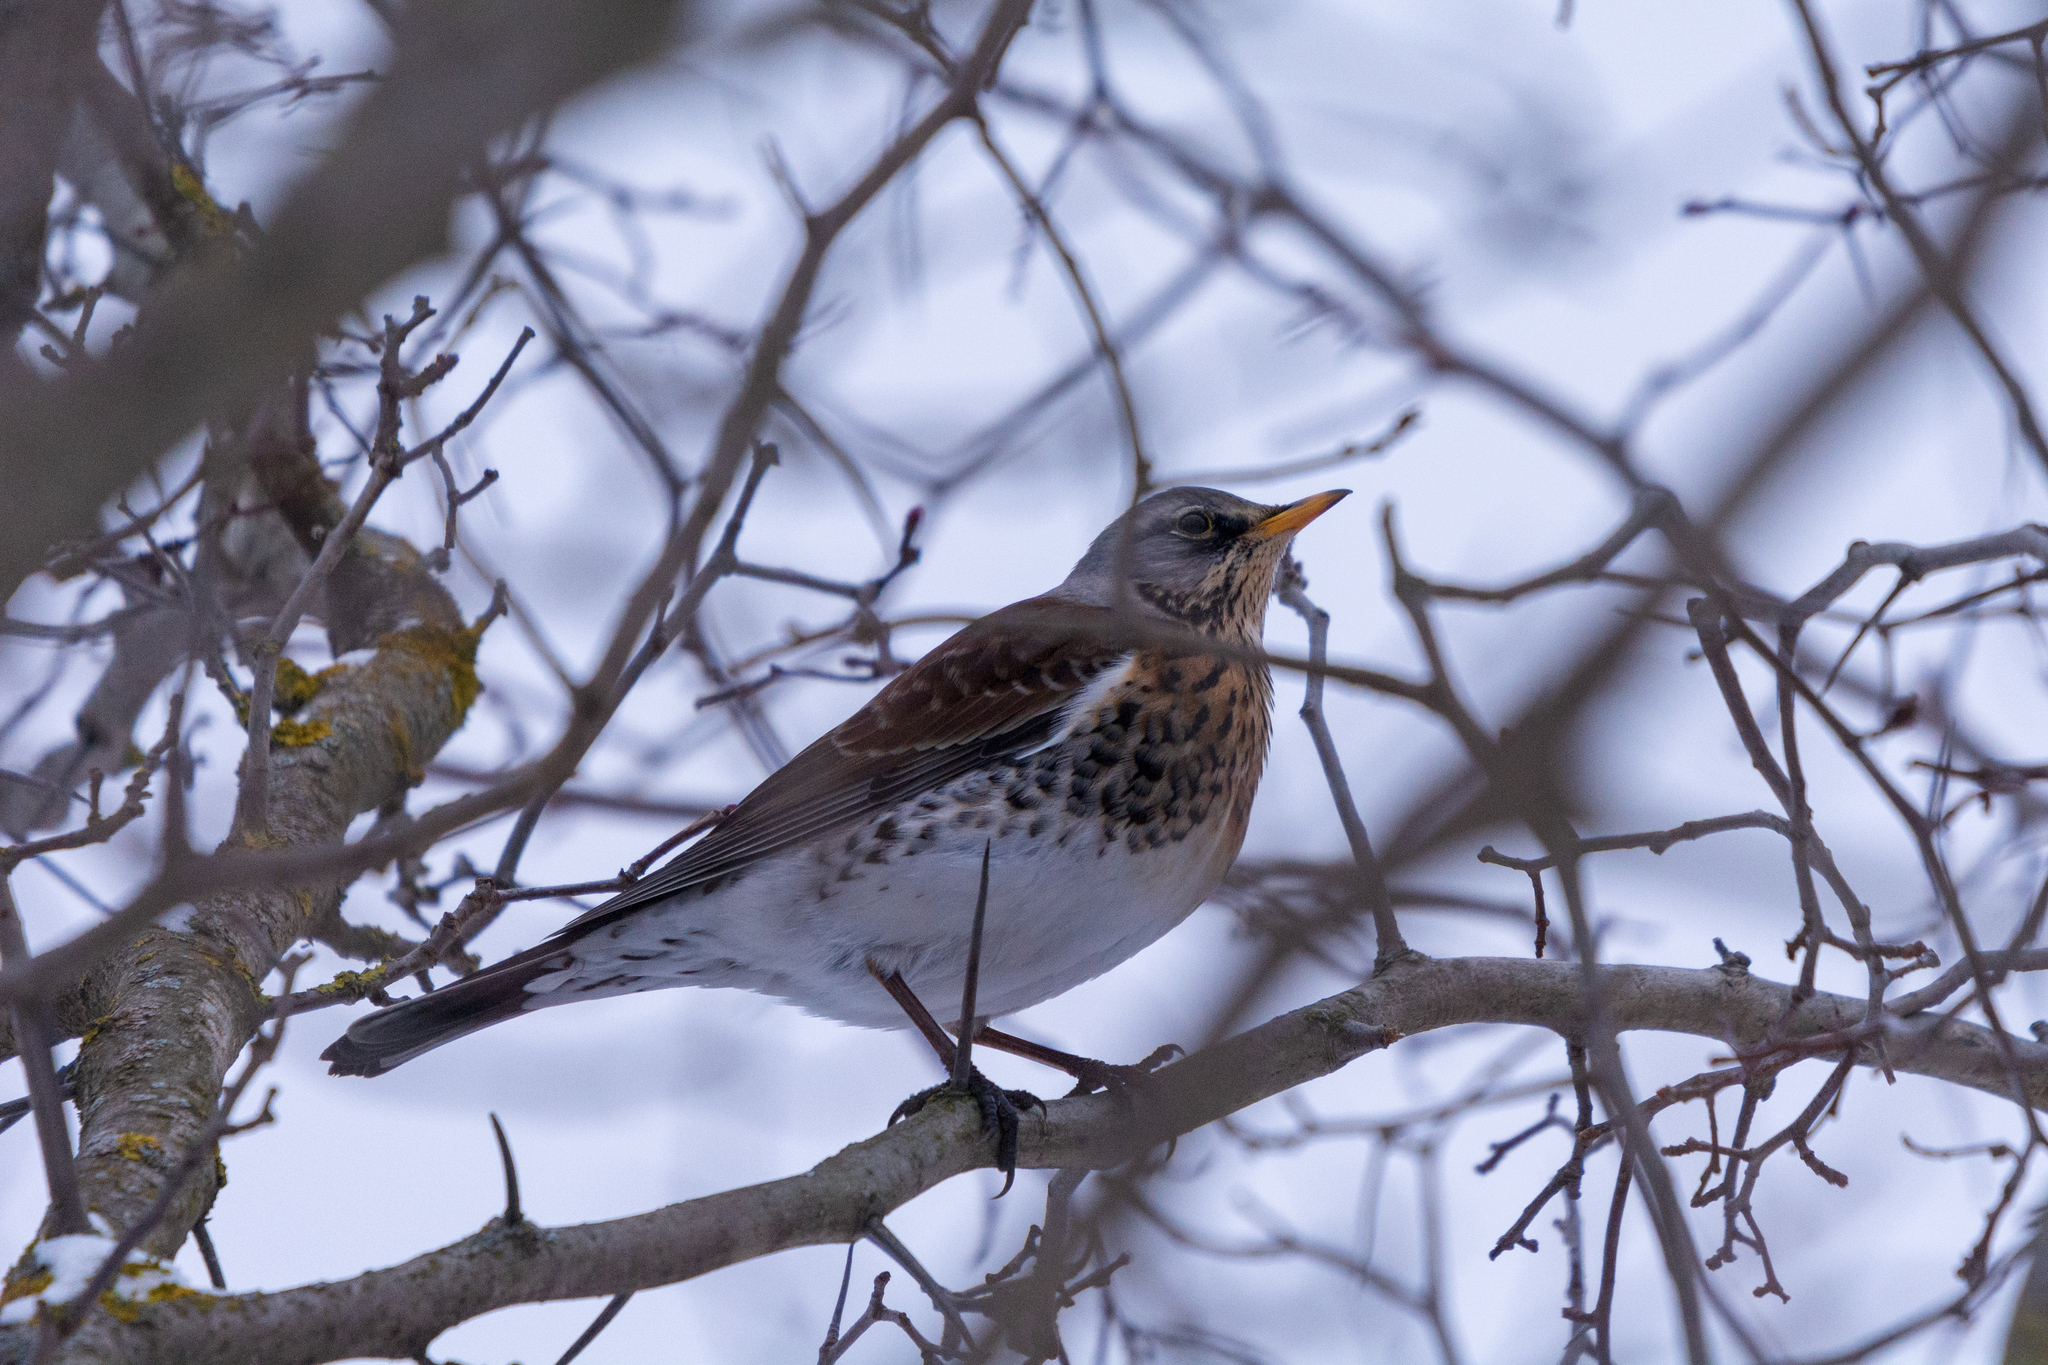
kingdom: Animalia
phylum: Chordata
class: Aves
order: Passeriformes
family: Turdidae
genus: Turdus
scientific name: Turdus pilaris
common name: Fieldfare
